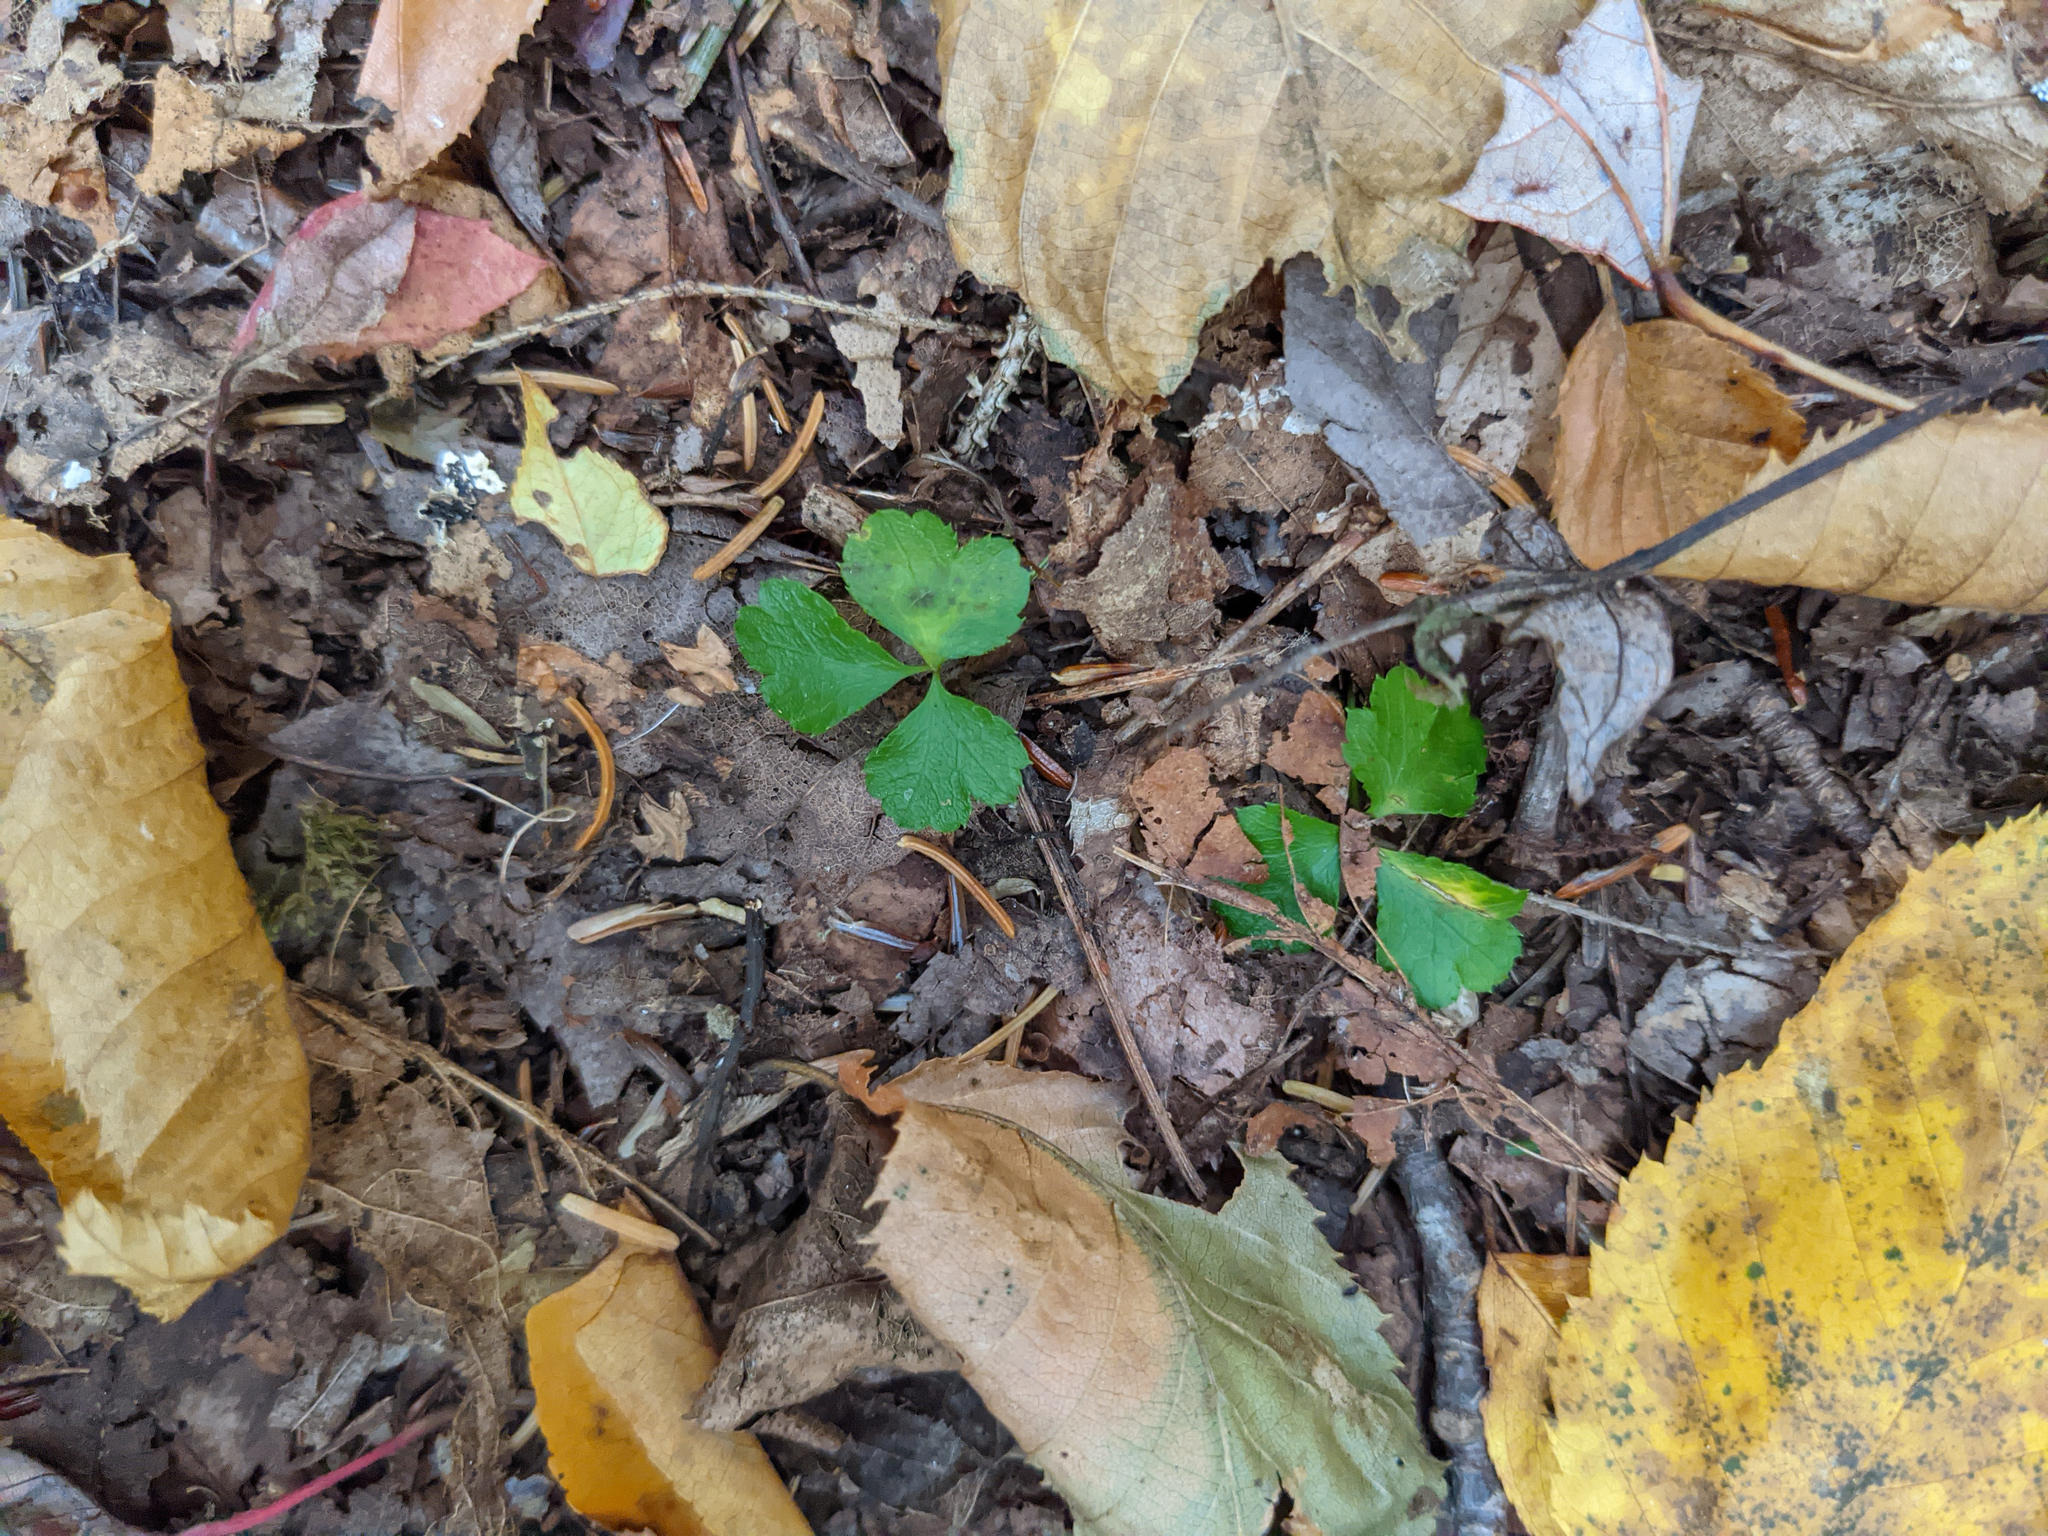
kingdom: Plantae
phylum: Tracheophyta
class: Magnoliopsida
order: Ranunculales
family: Ranunculaceae
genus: Coptis
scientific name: Coptis trifolia
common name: Canker-root
